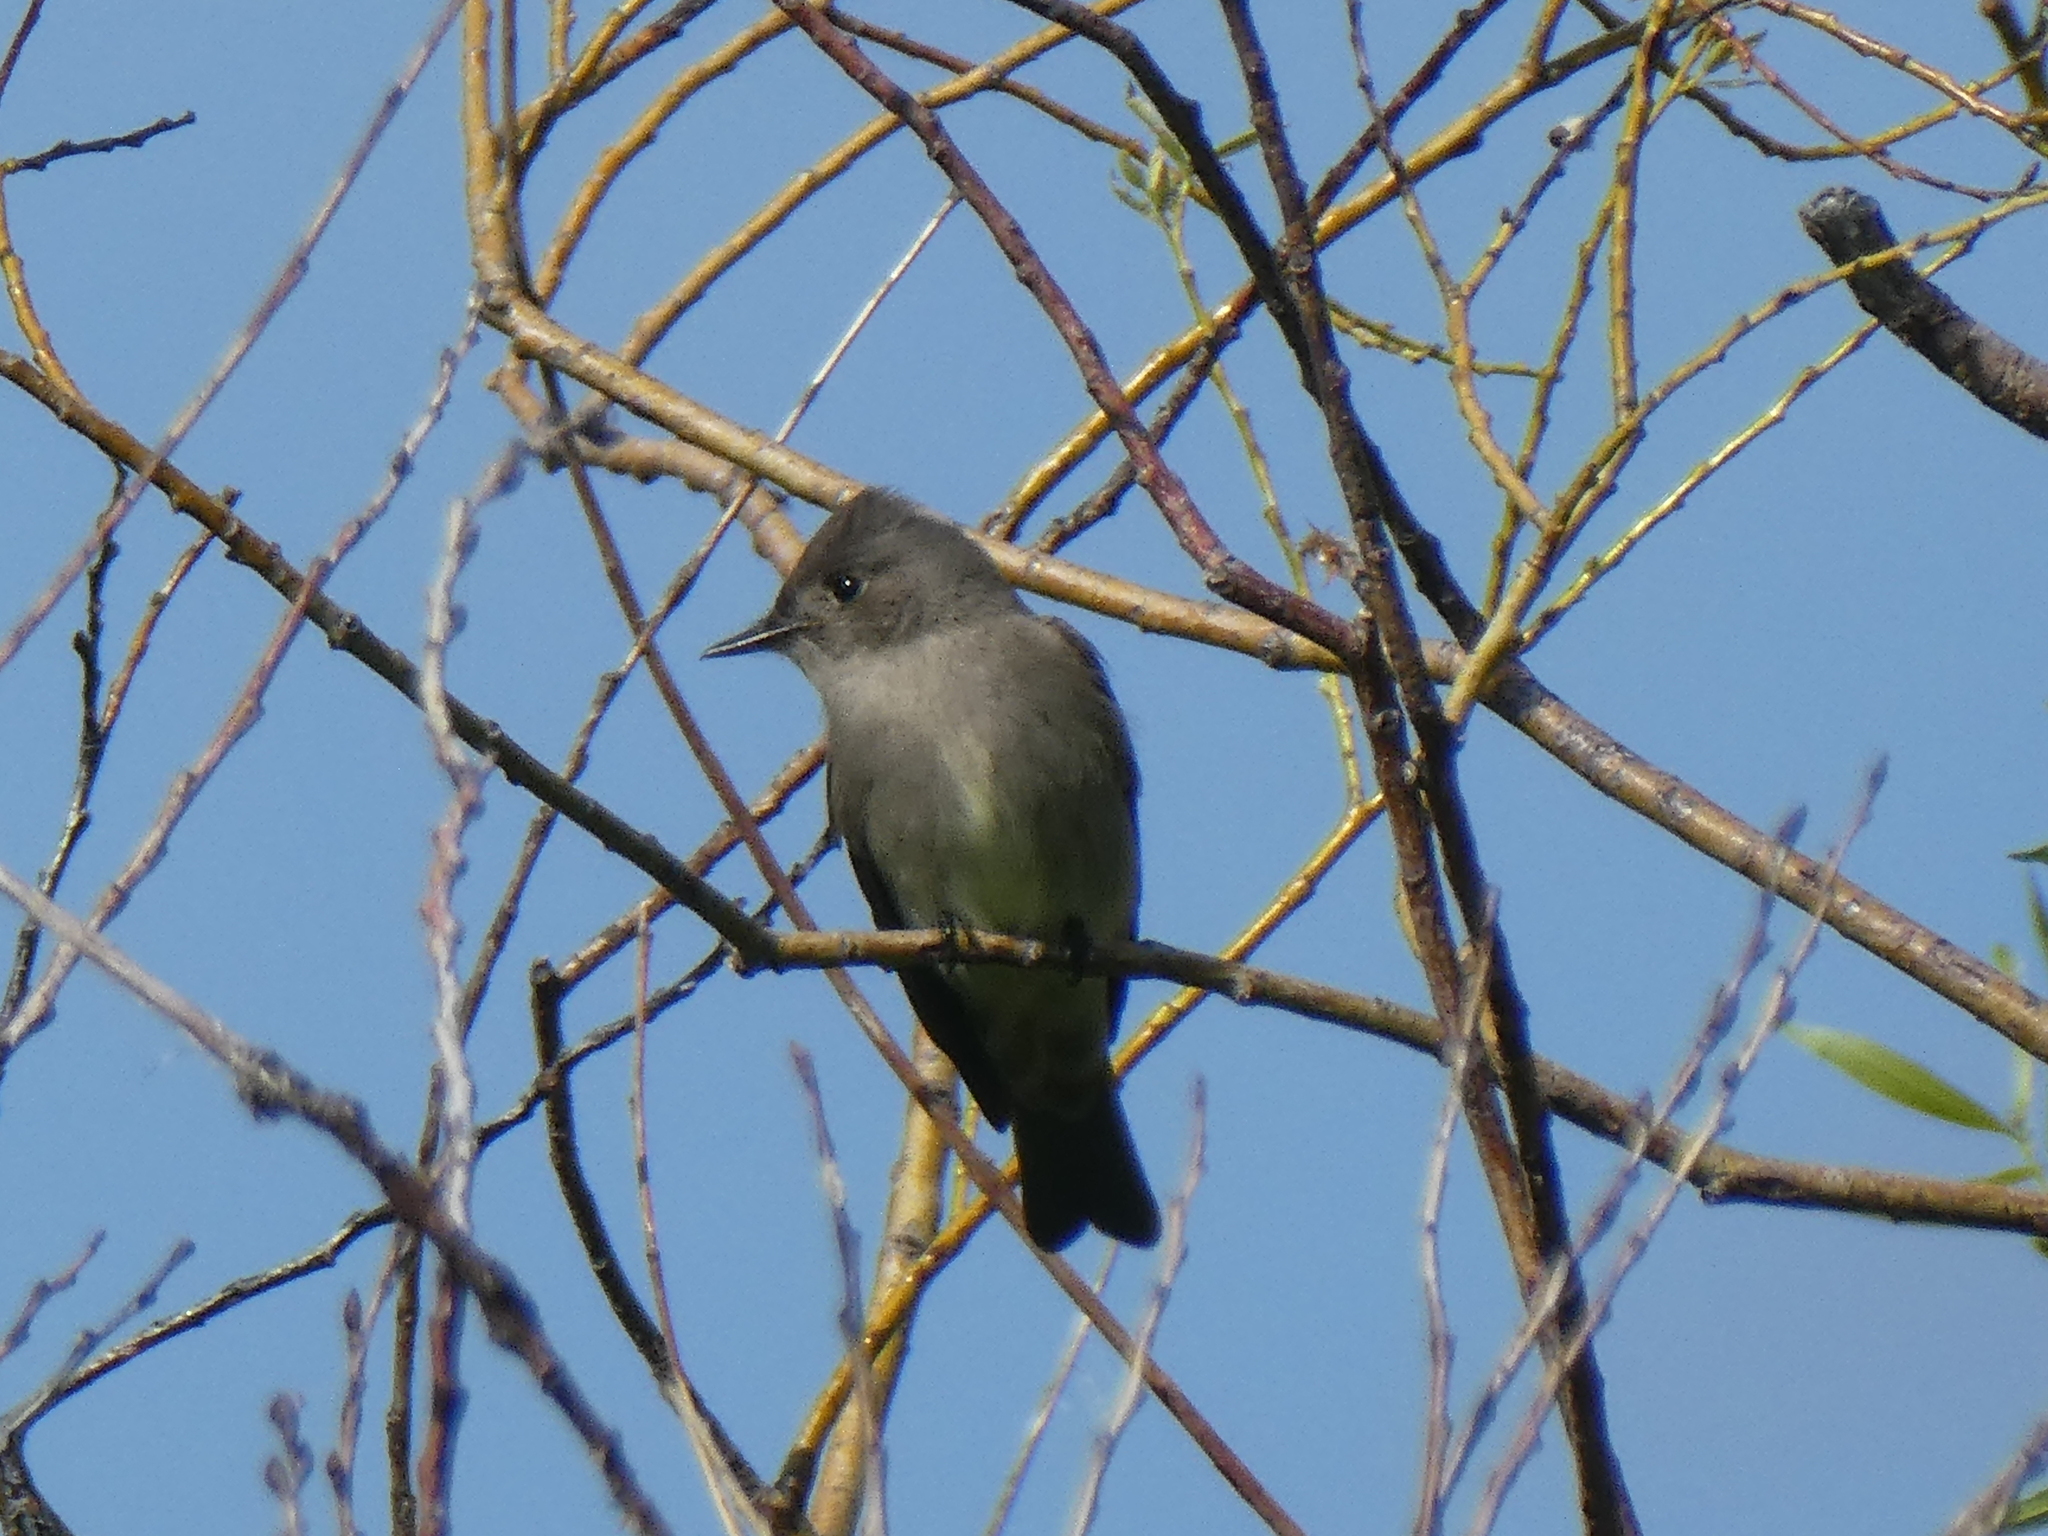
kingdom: Animalia
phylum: Chordata
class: Aves
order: Passeriformes
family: Tyrannidae
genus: Contopus
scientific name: Contopus sordidulus
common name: Western wood-pewee
